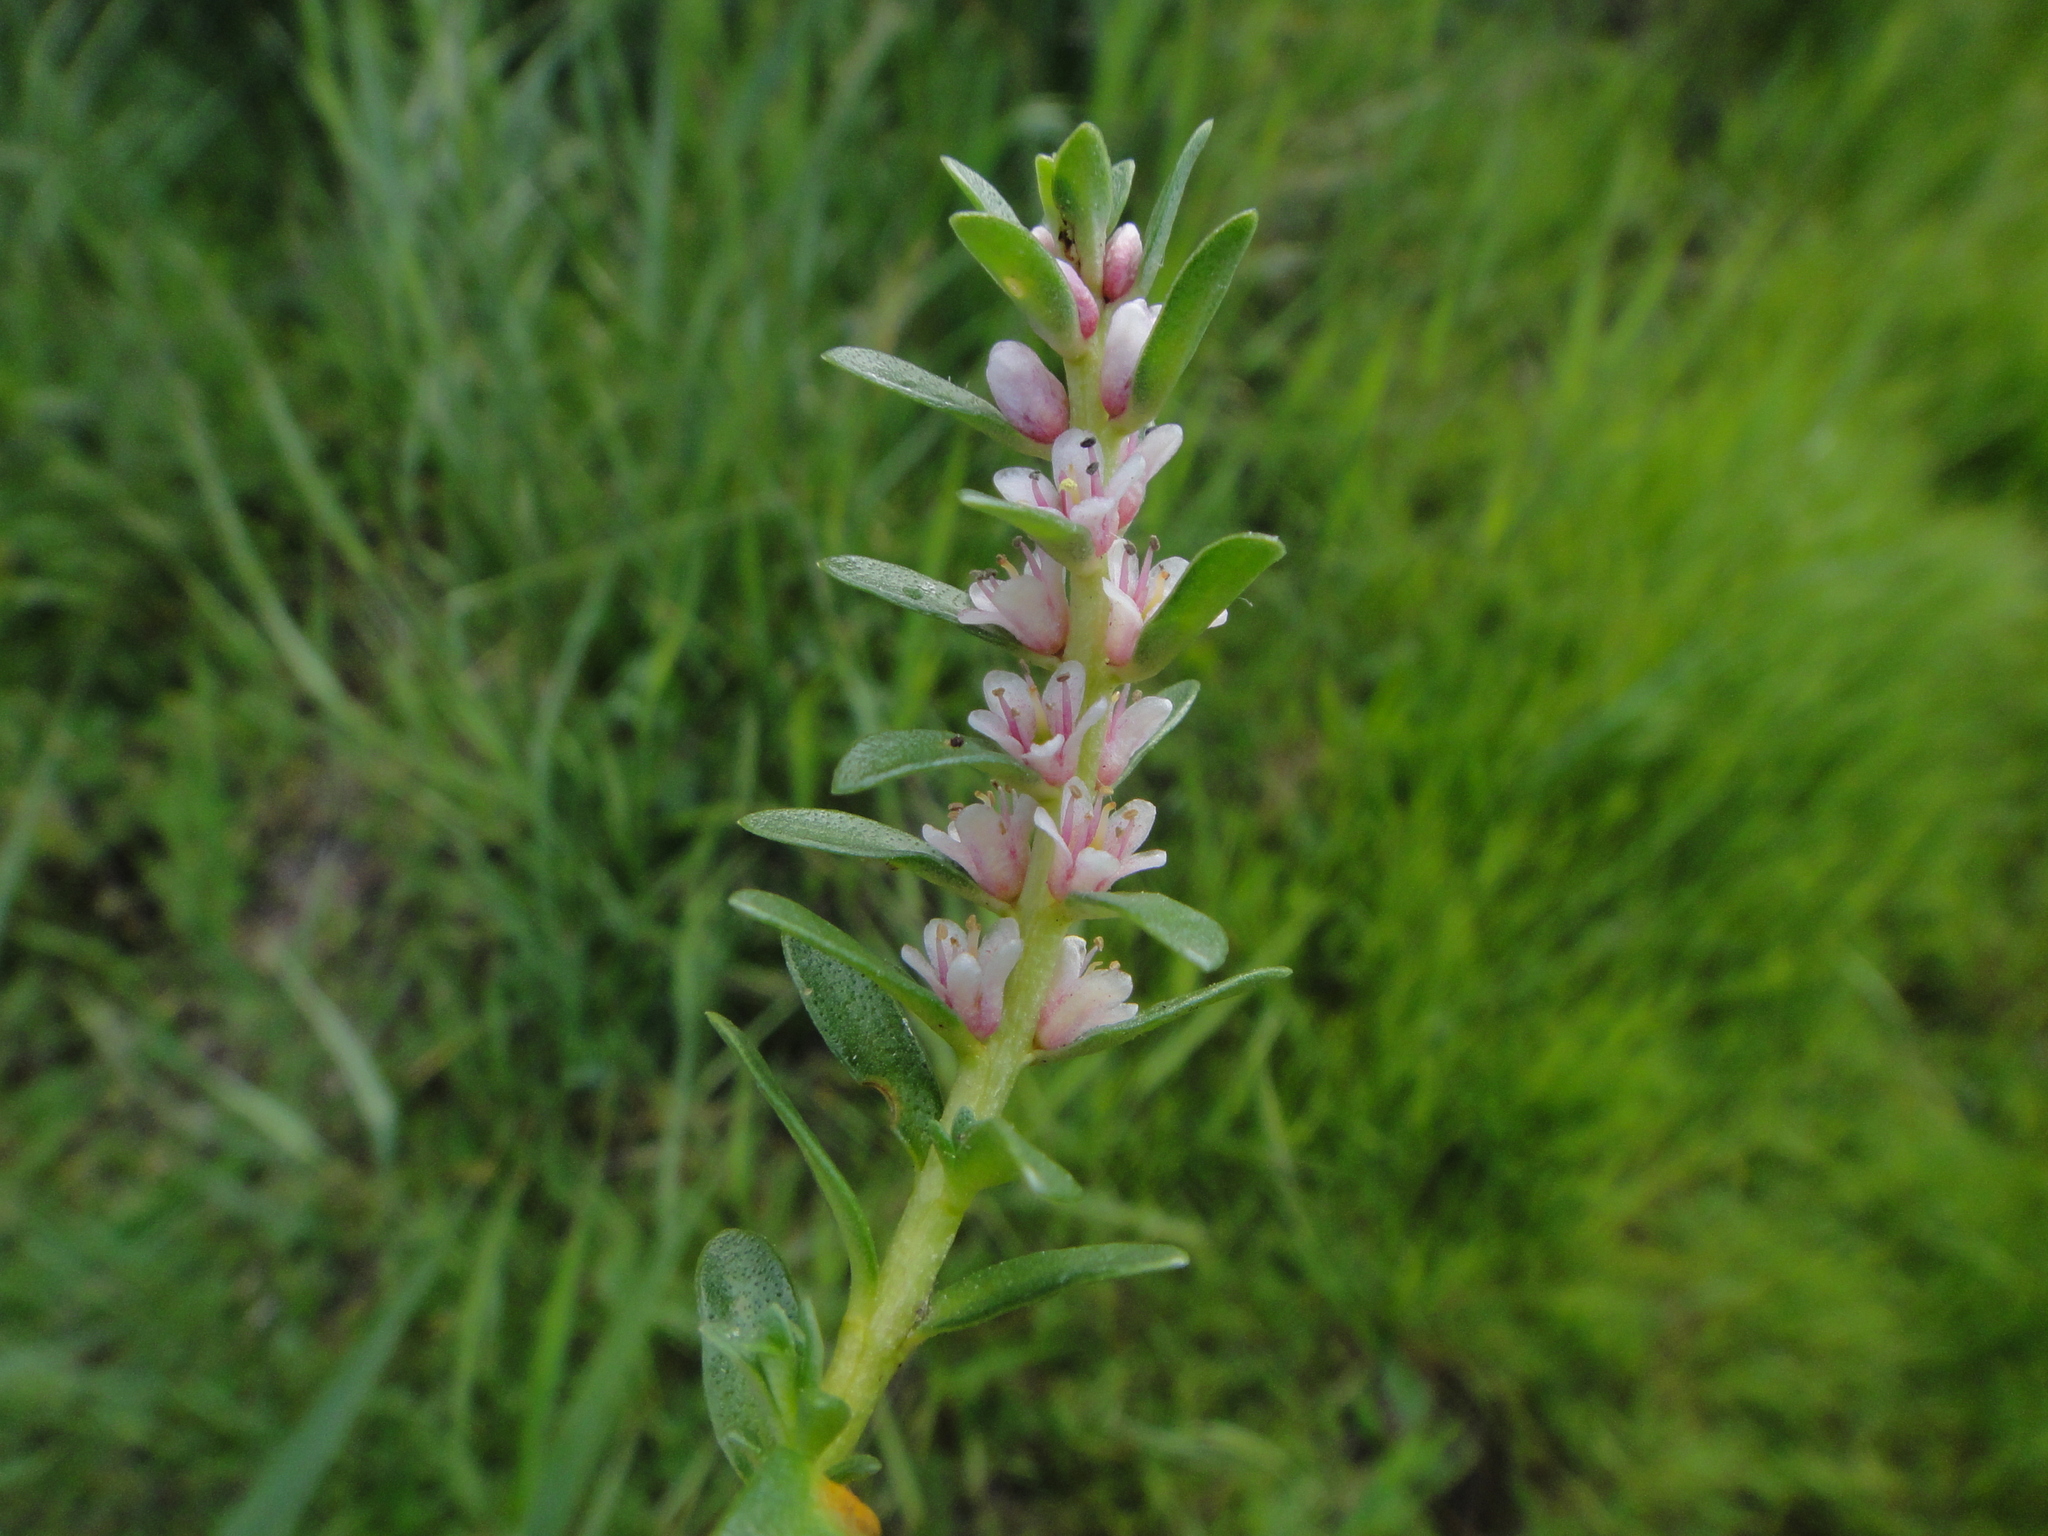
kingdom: Plantae
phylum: Tracheophyta
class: Magnoliopsida
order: Ericales
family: Primulaceae
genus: Lysimachia
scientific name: Lysimachia maritima
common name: Sea milkwort
